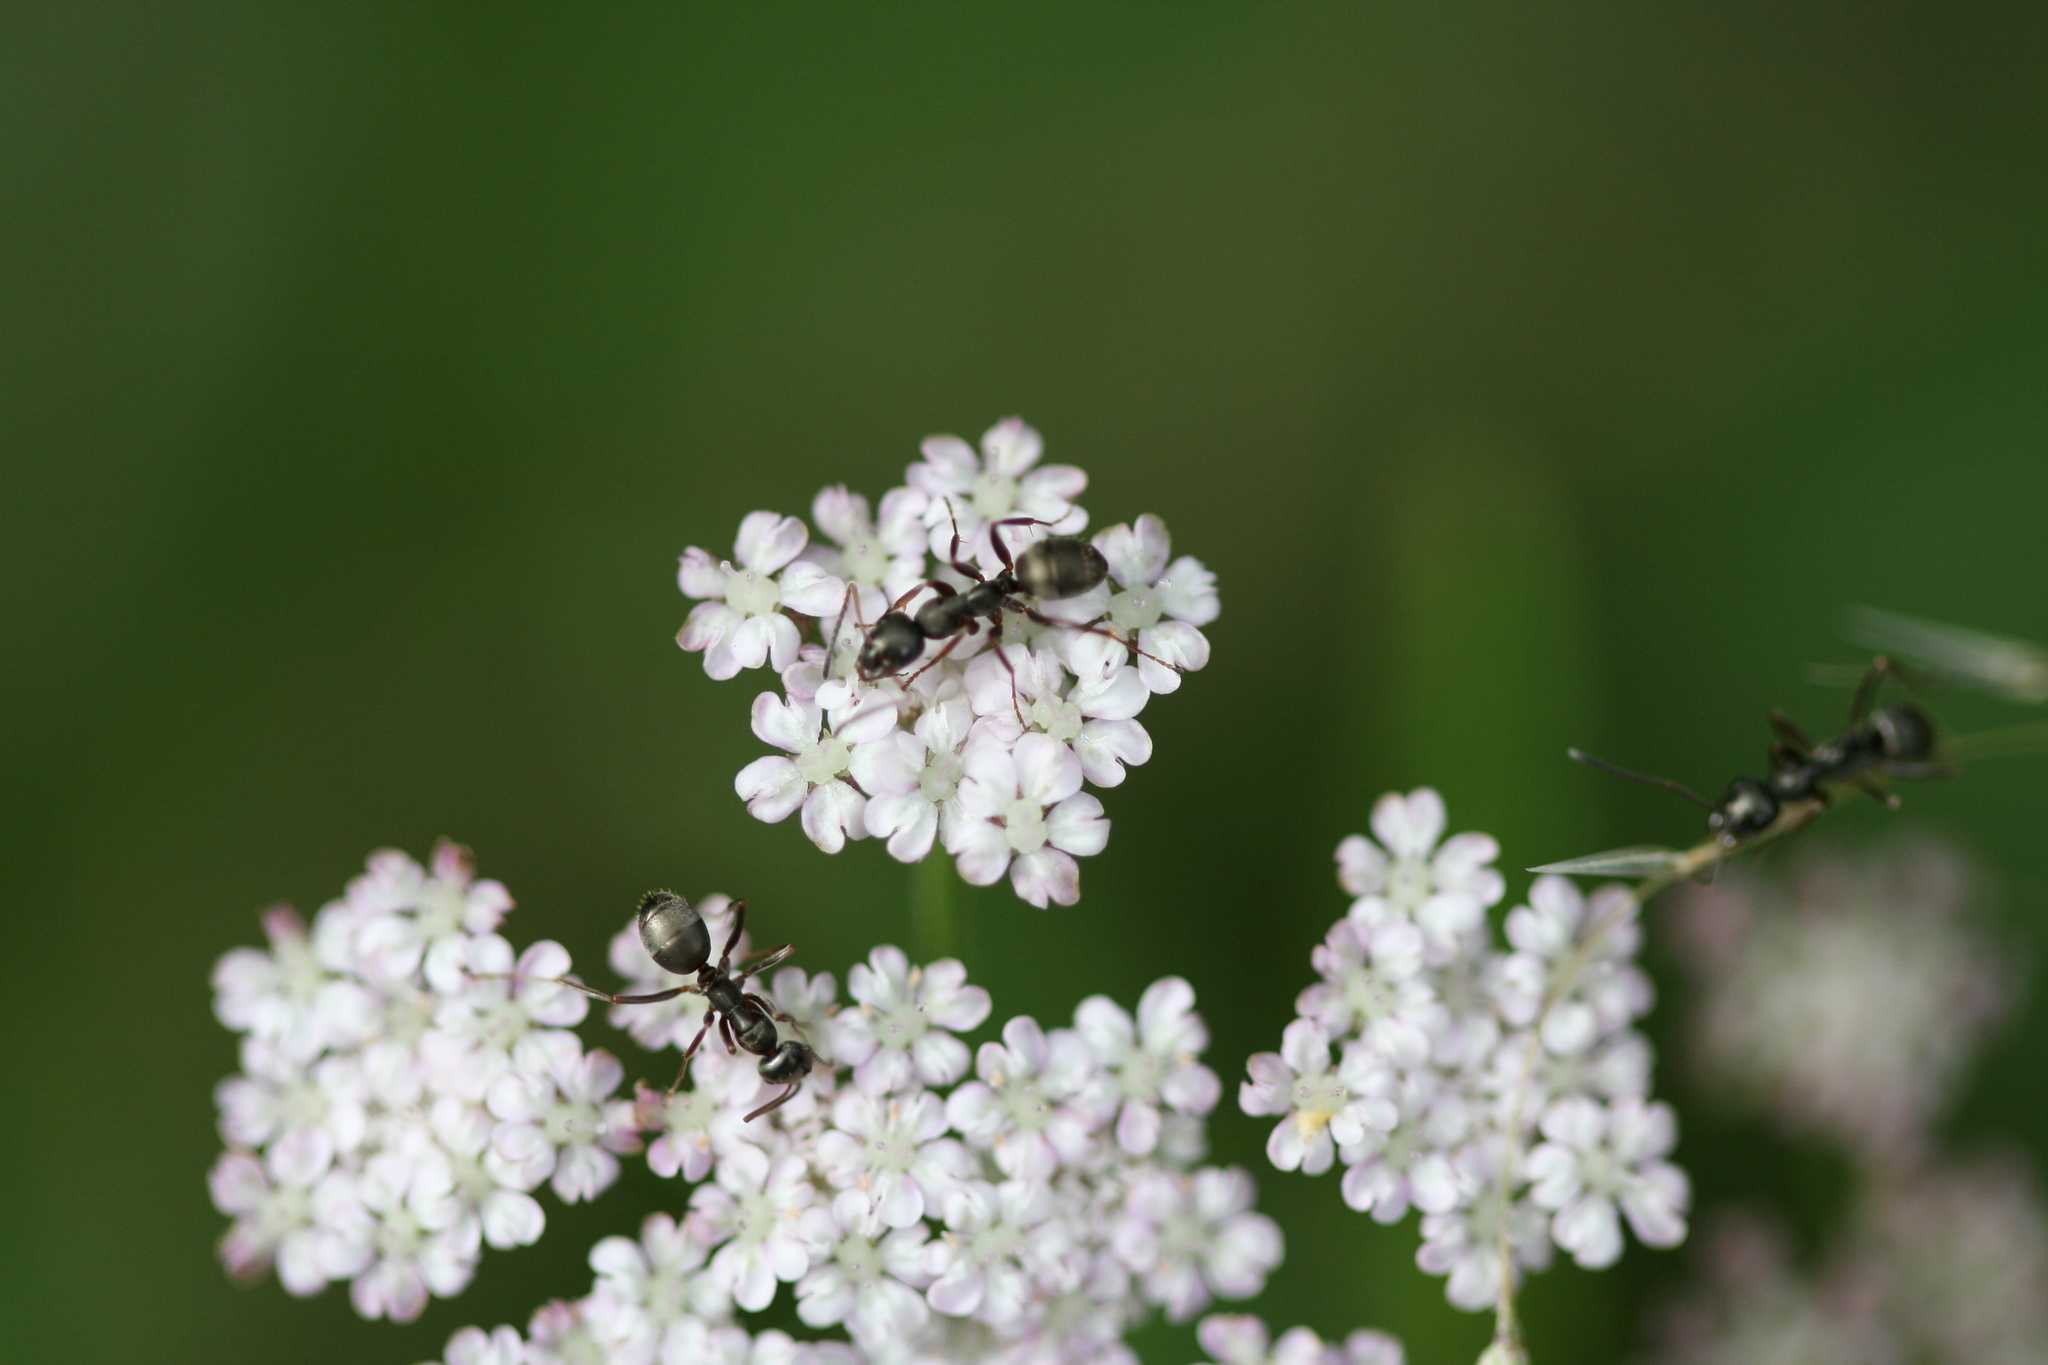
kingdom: Animalia
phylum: Arthropoda
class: Insecta
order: Hymenoptera
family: Formicidae
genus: Formica
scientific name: Formica
